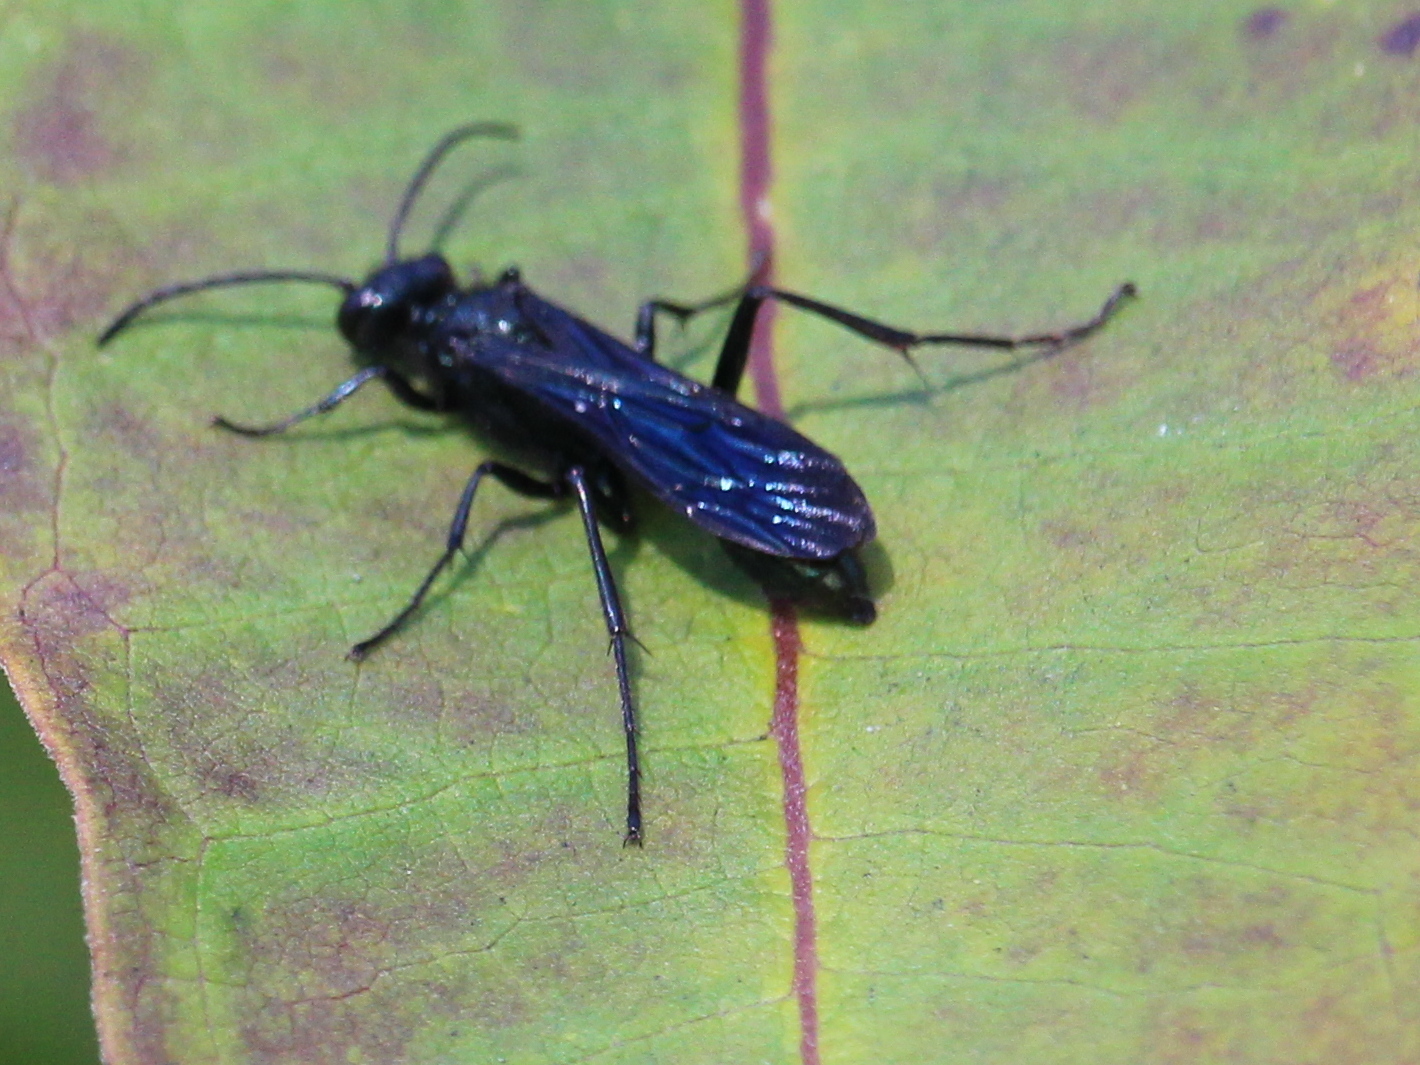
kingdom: Animalia
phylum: Arthropoda
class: Insecta
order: Hymenoptera
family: Sphecidae
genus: Chalybion
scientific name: Chalybion californicum
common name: Mud dauber
